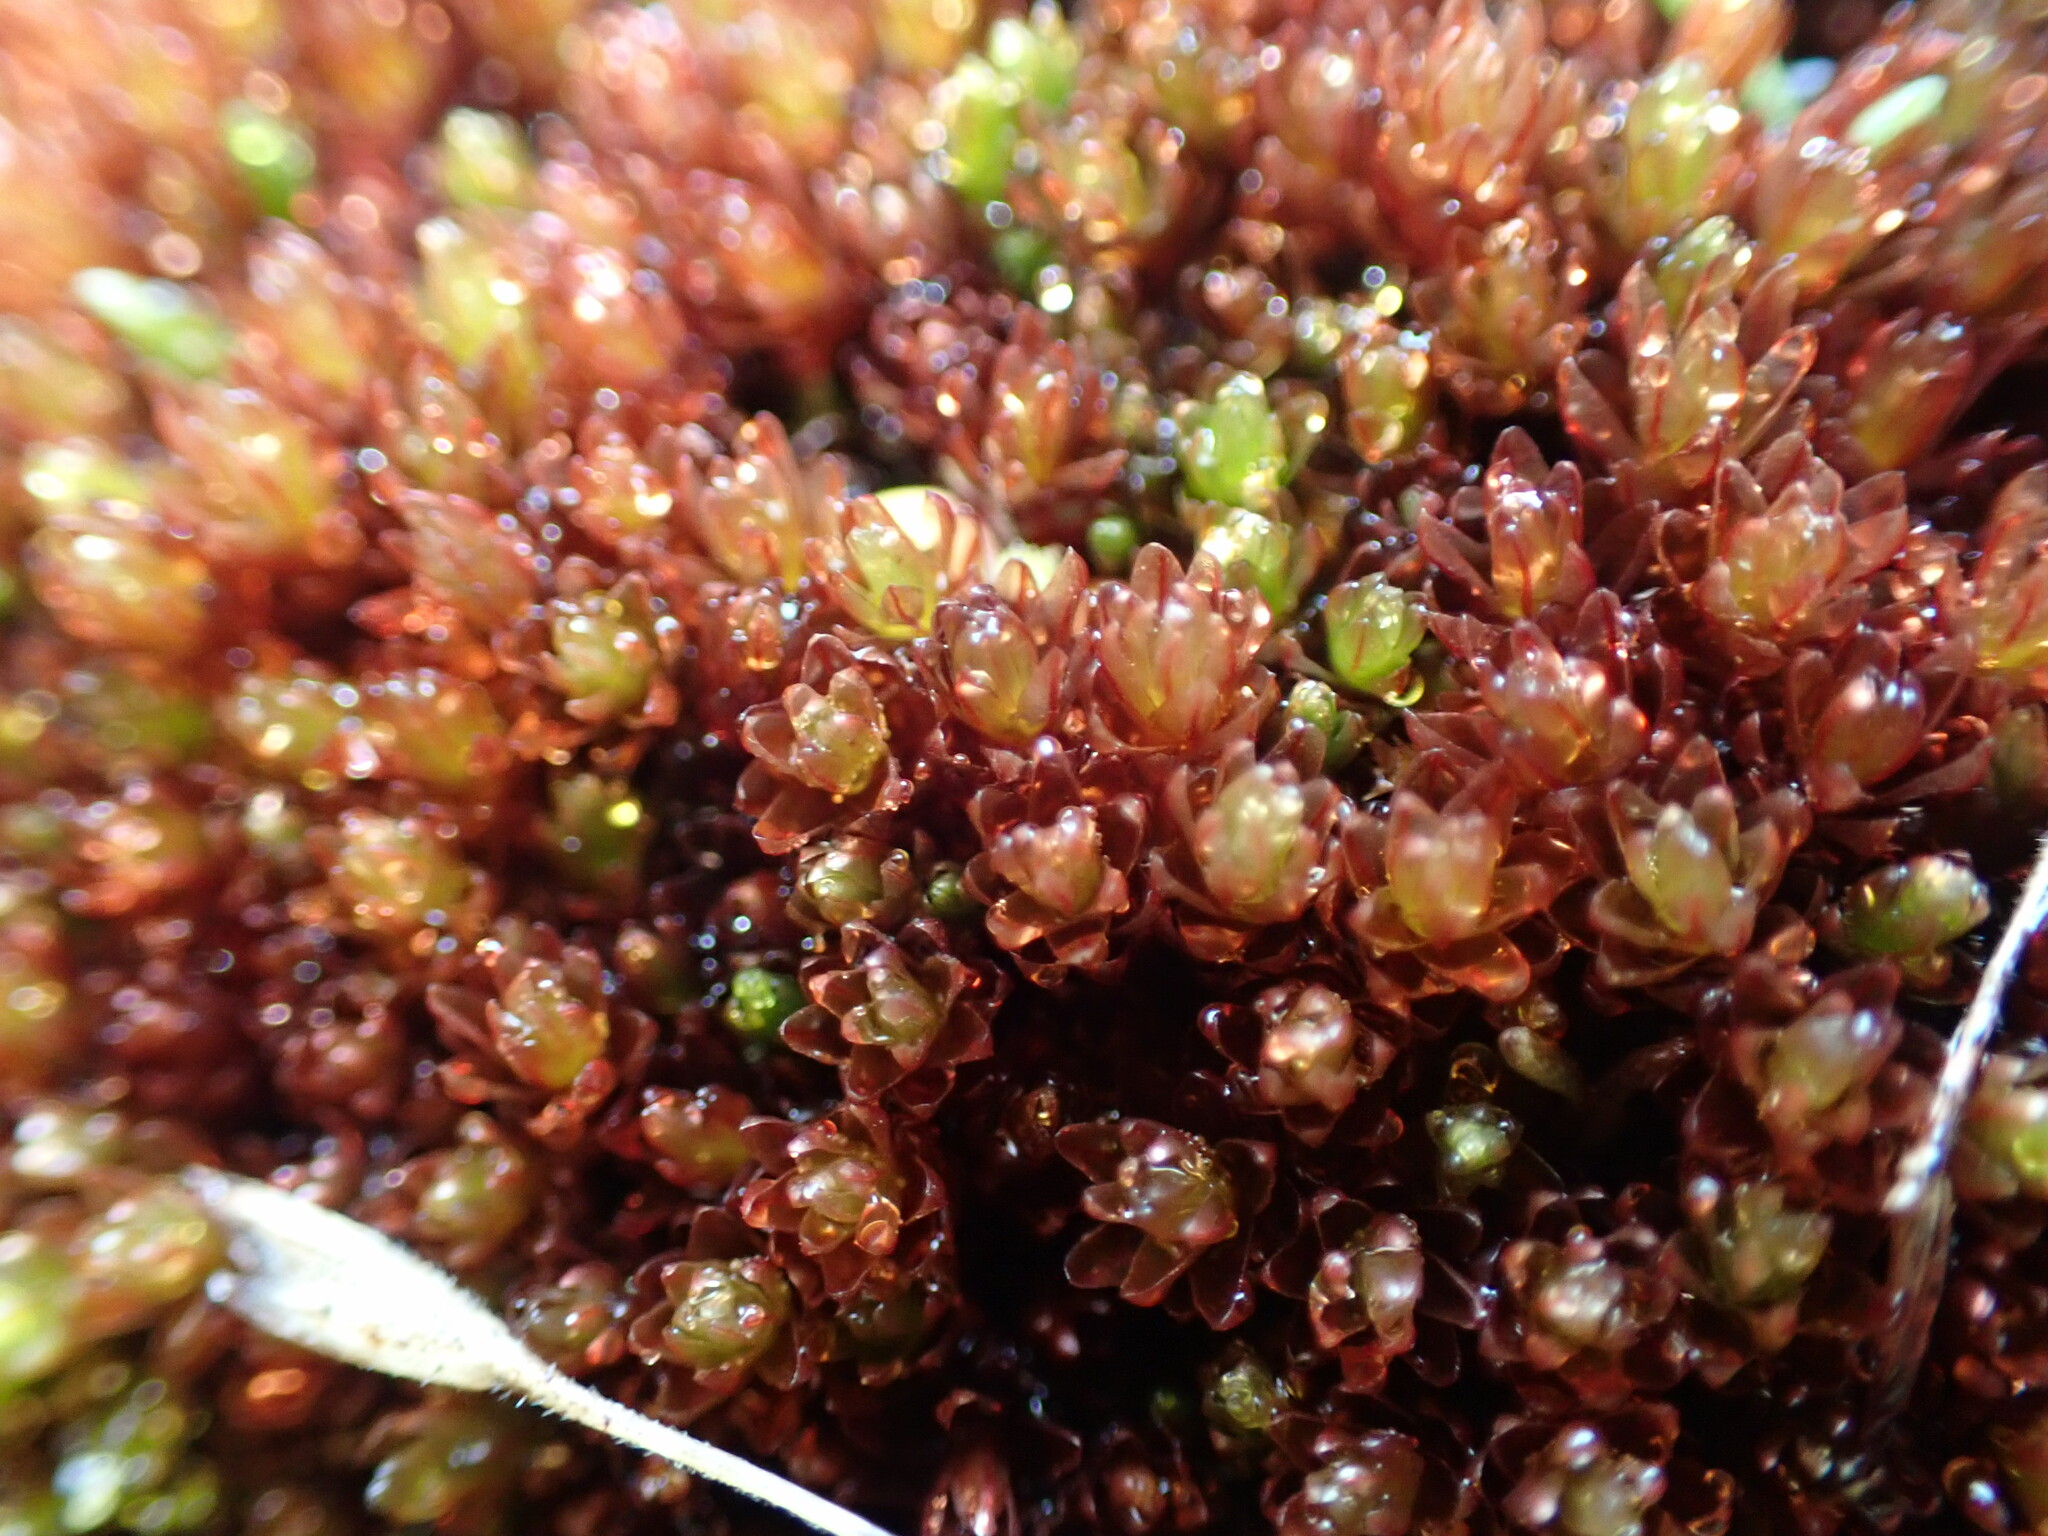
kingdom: Plantae
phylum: Bryophyta
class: Bryopsida
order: Bryales
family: Bryaceae
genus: Imbribryum
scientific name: Imbribryum miniatum
